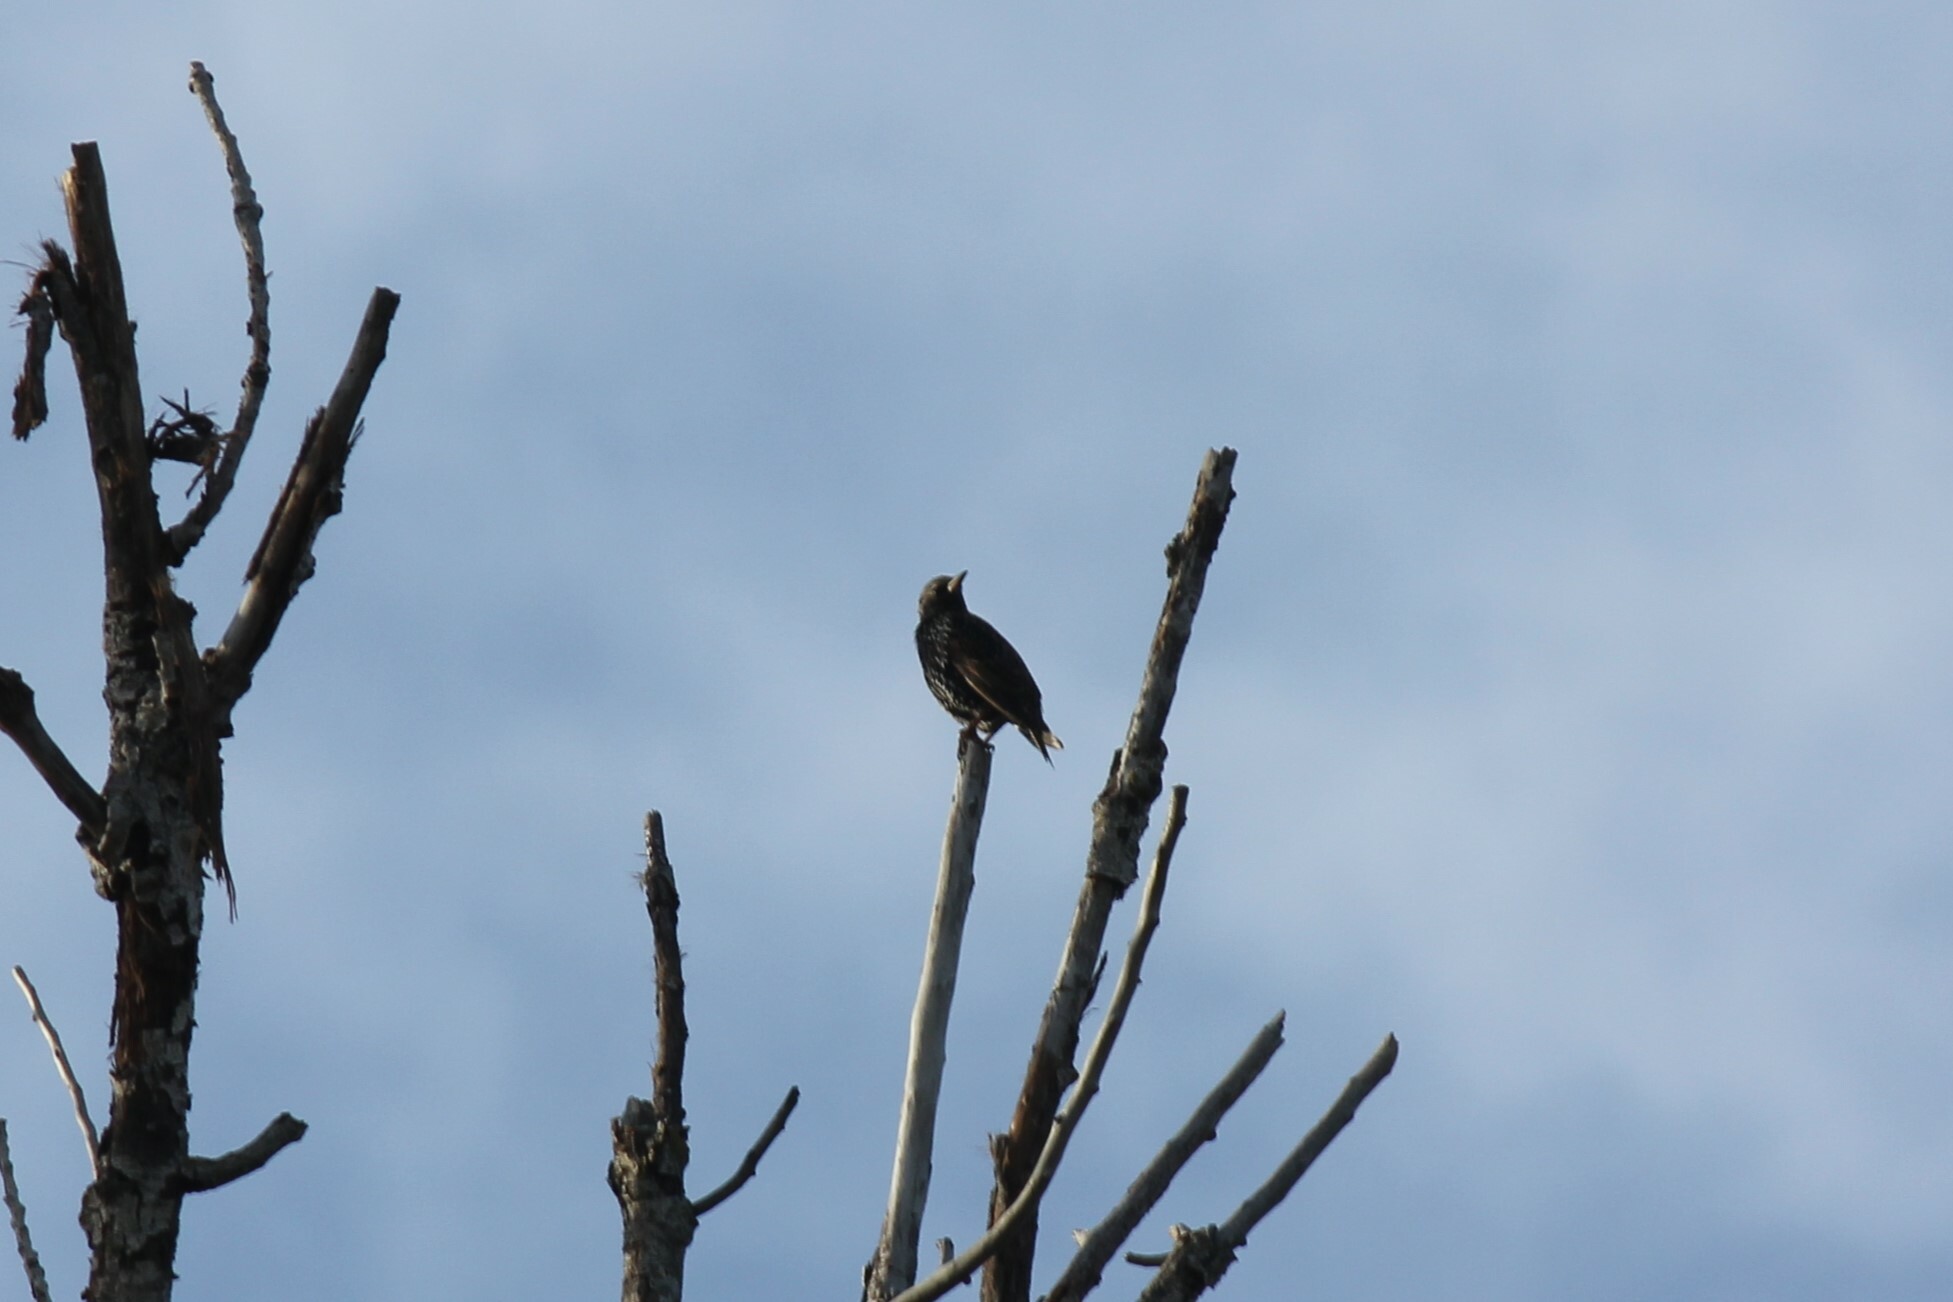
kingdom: Animalia
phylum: Chordata
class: Aves
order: Passeriformes
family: Sturnidae
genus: Sturnus
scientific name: Sturnus vulgaris
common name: Common starling
